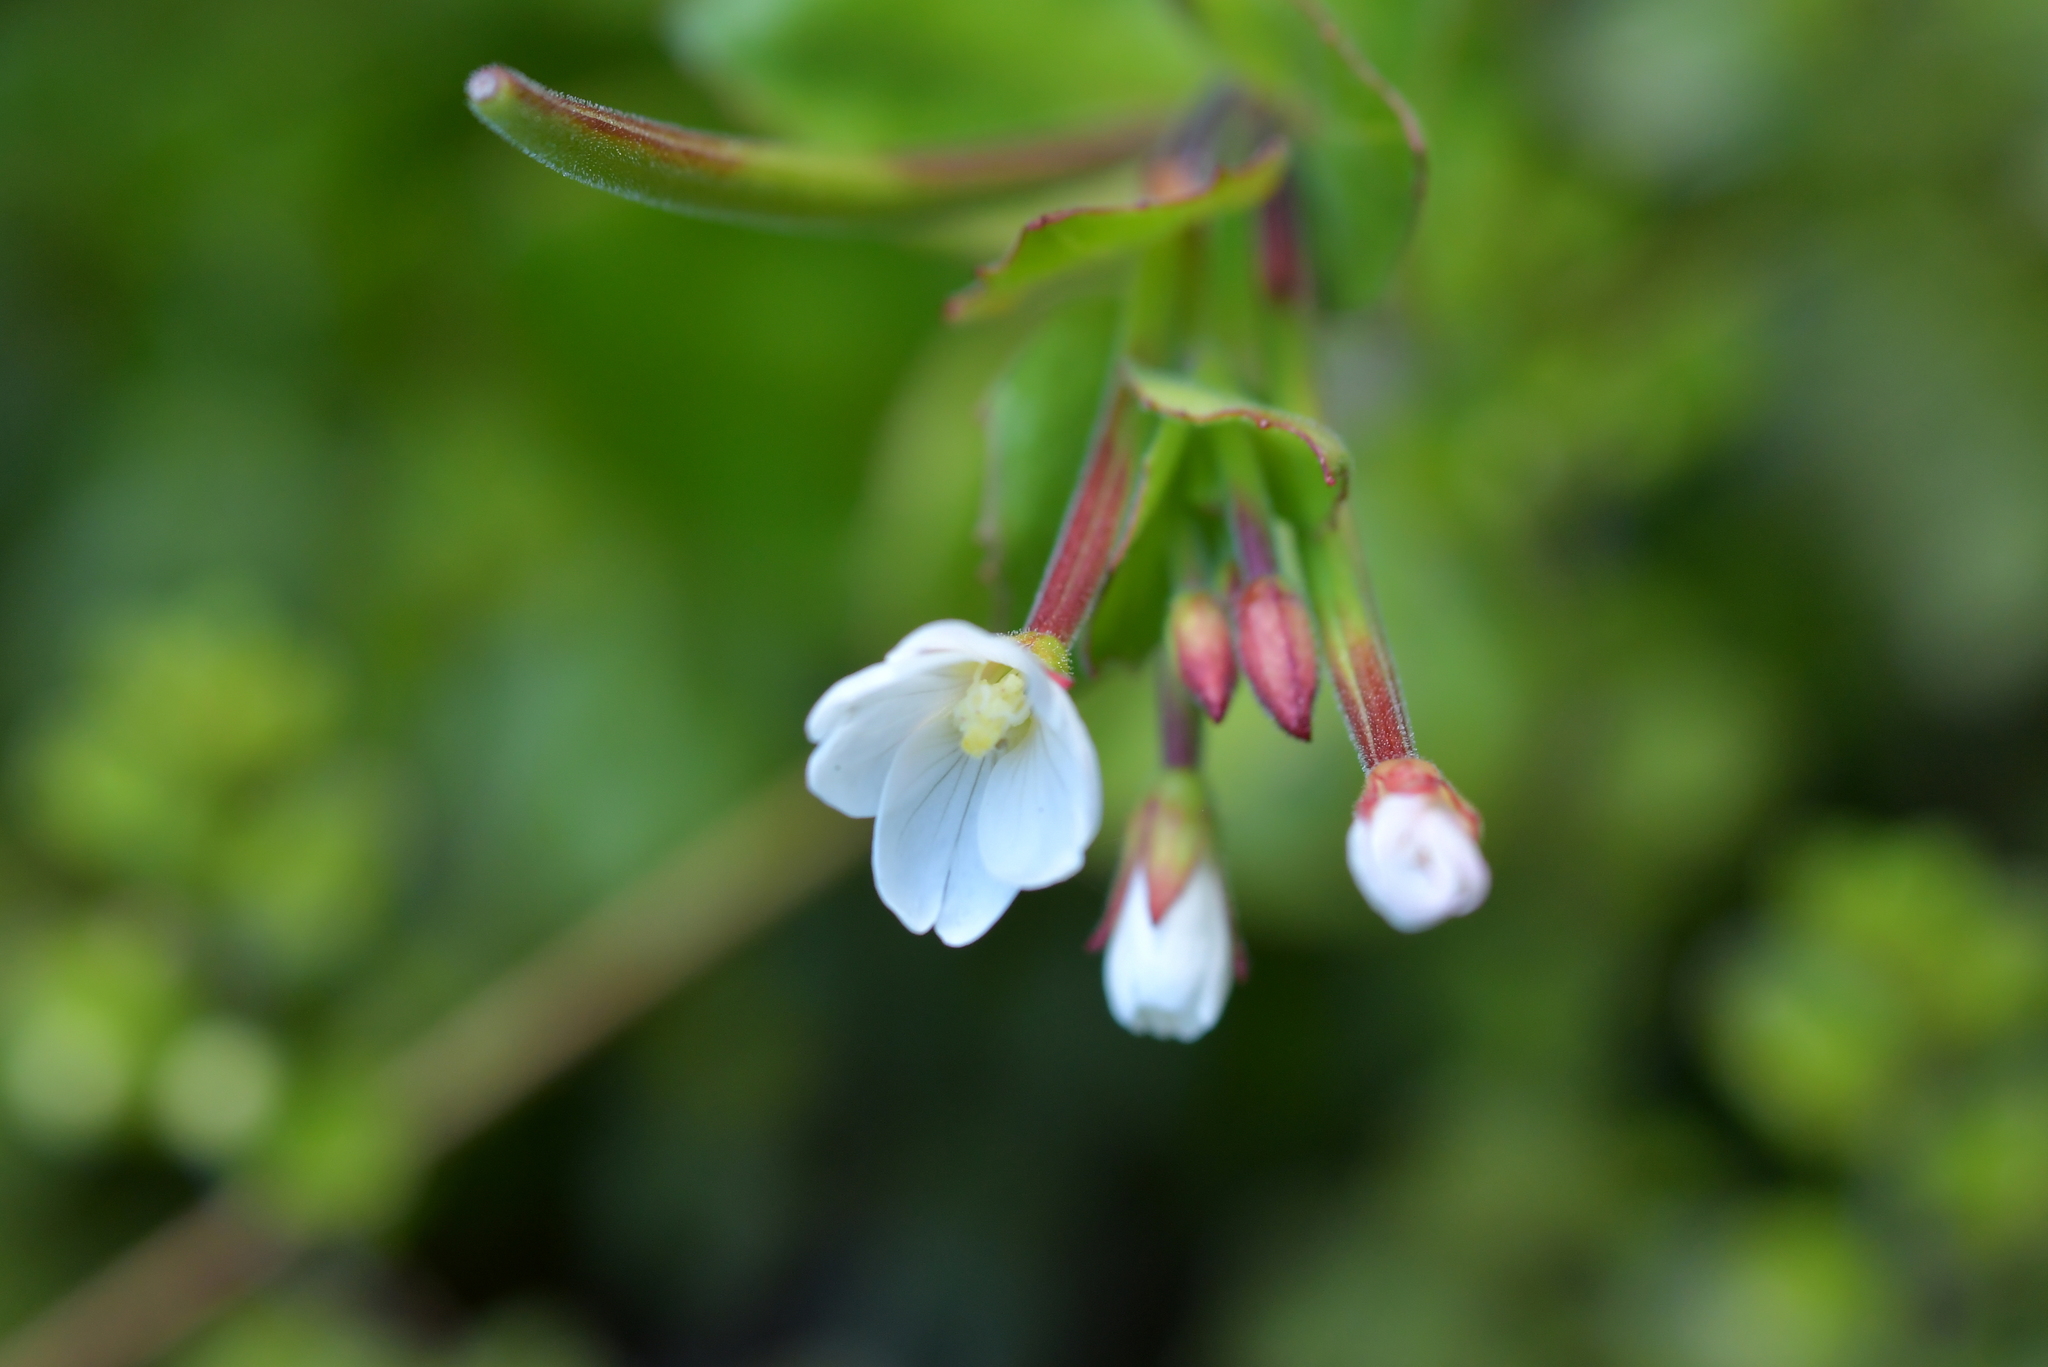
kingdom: Plantae
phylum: Tracheophyta
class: Magnoliopsida
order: Myrtales
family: Onagraceae
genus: Epilobium
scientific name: Epilobium chlorifolium
